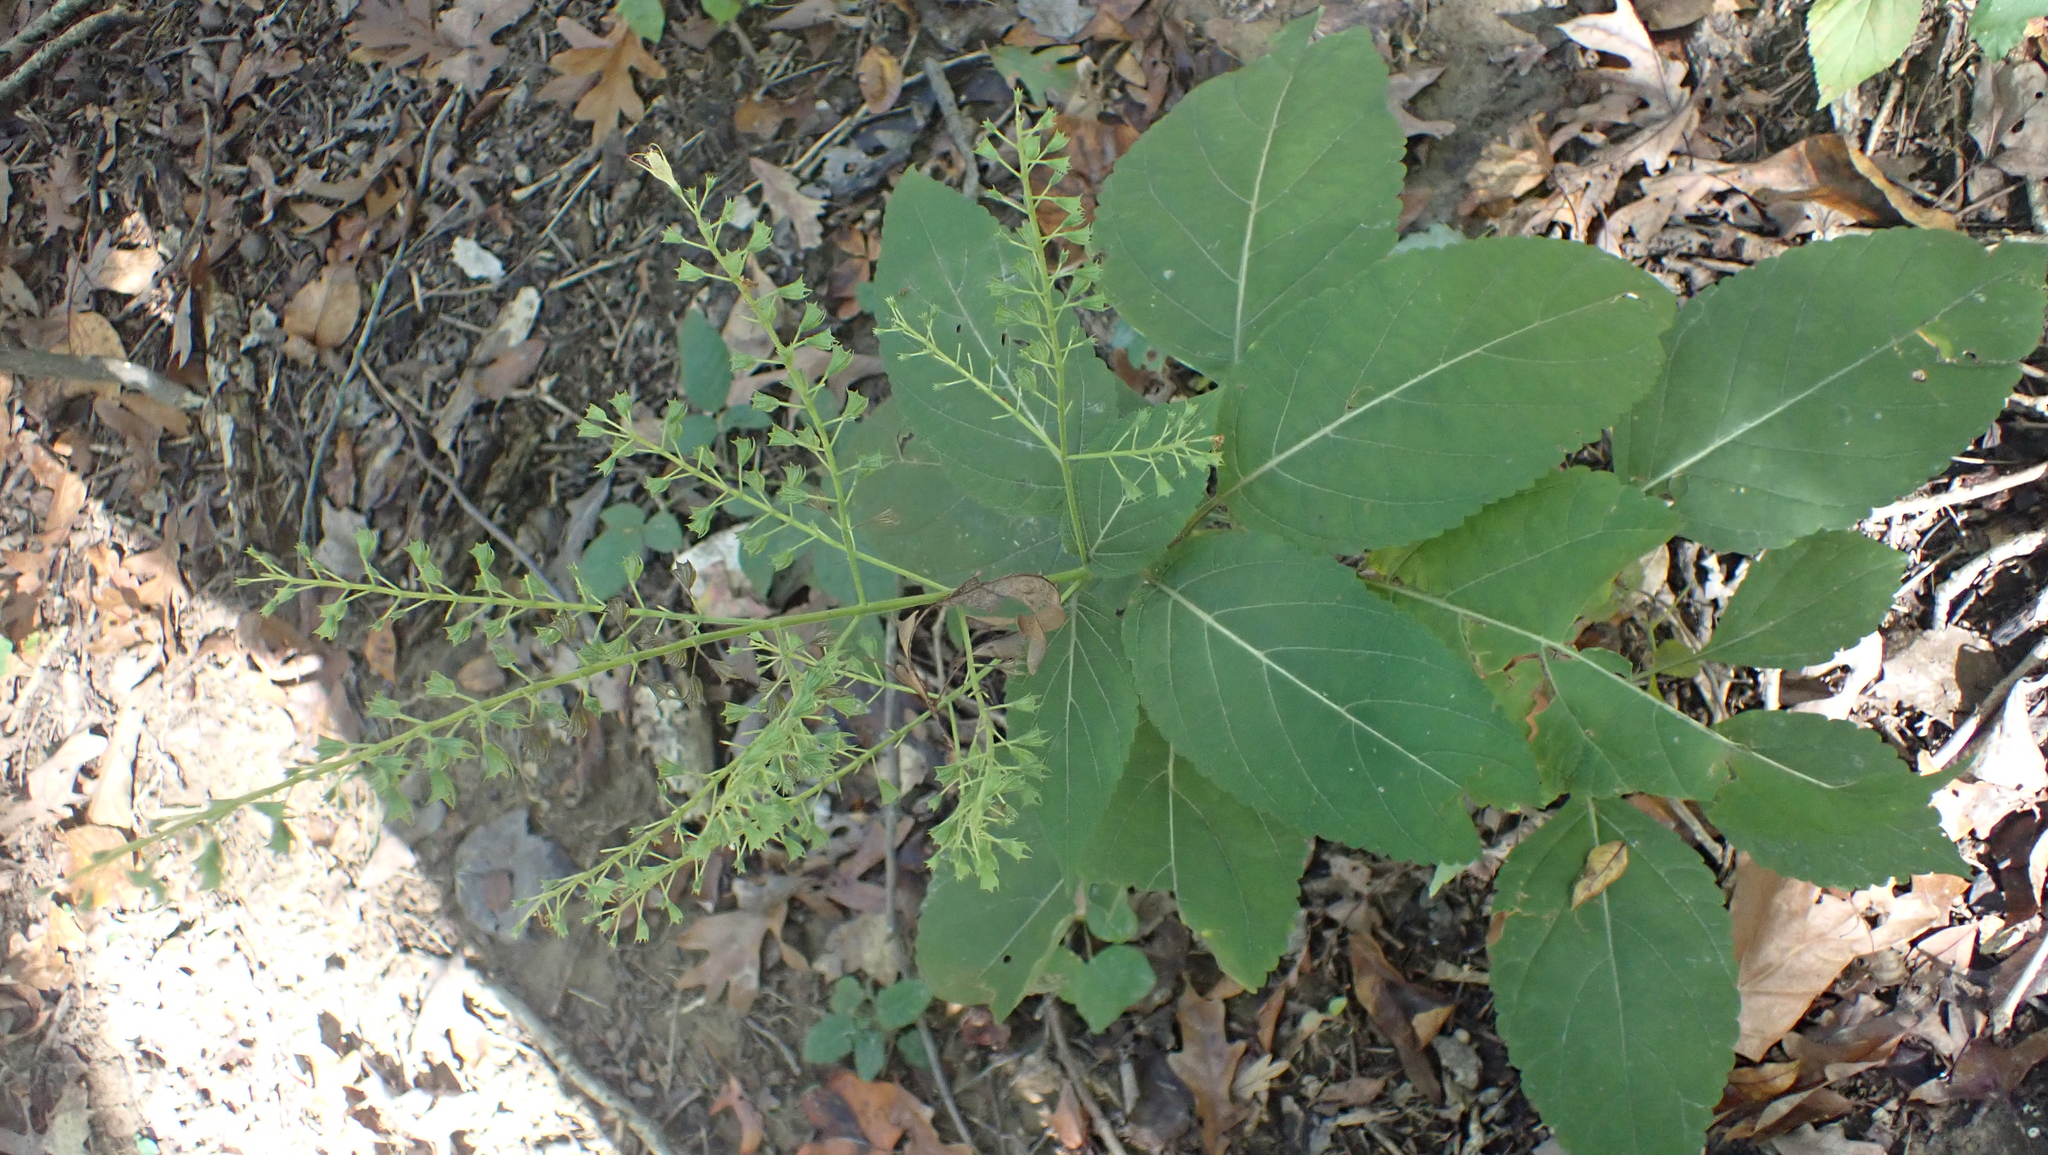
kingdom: Plantae
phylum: Tracheophyta
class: Magnoliopsida
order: Lamiales
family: Lamiaceae
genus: Collinsonia
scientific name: Collinsonia canadensis
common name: Northern horsebalm
